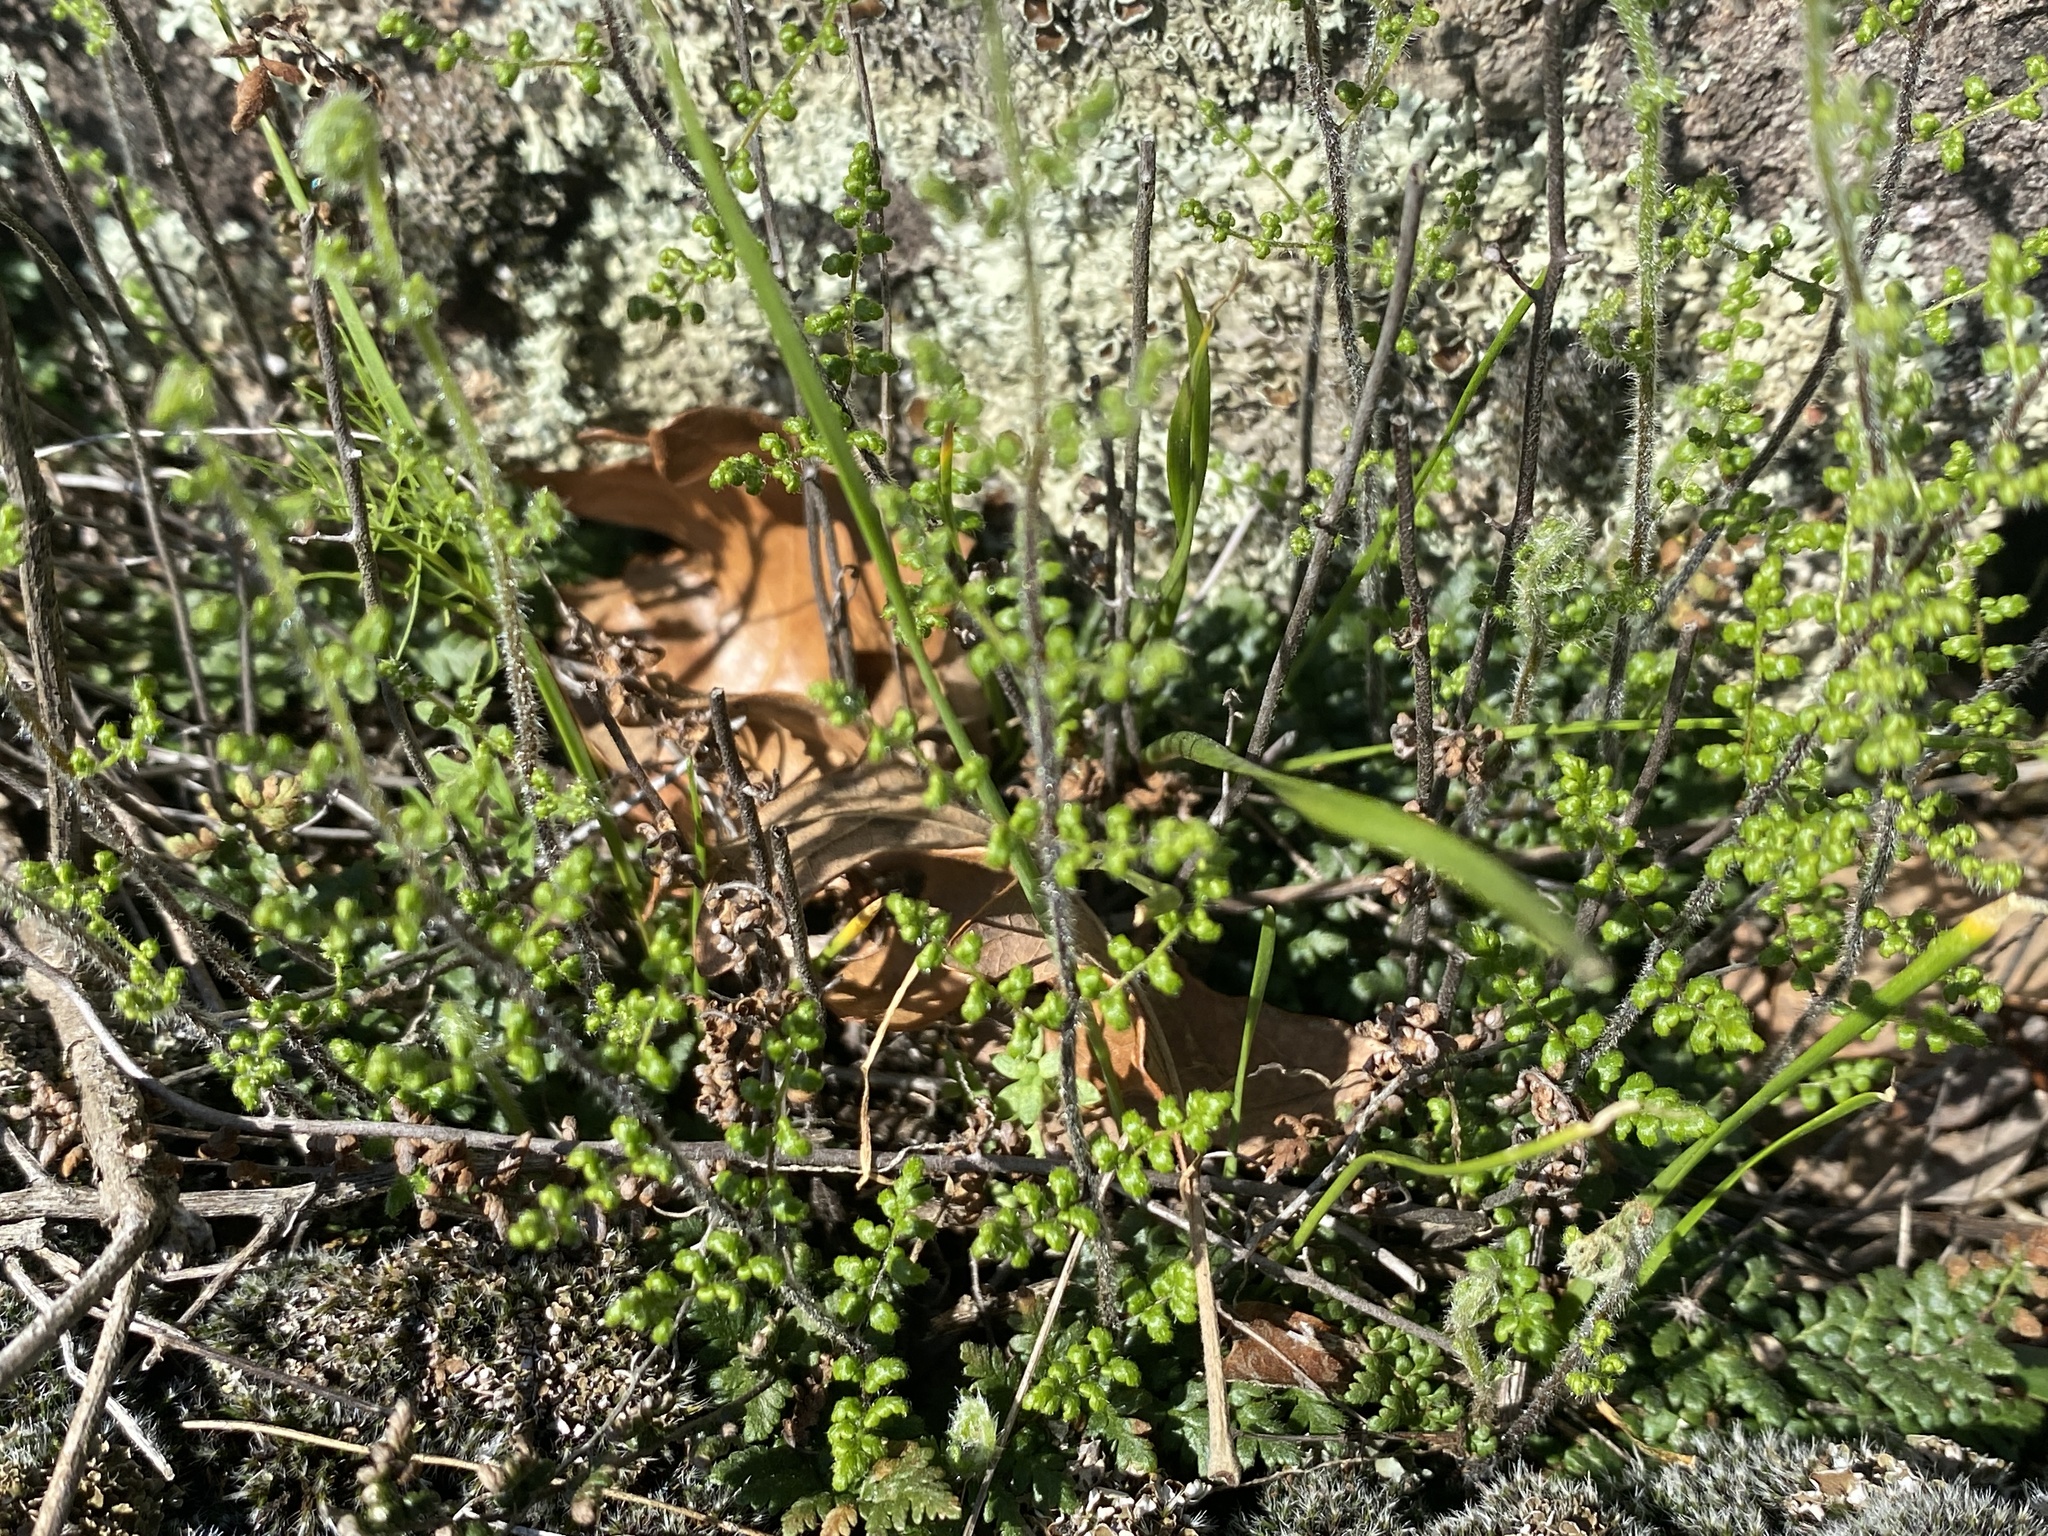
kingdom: Plantae
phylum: Tracheophyta
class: Polypodiopsida
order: Polypodiales
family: Pteridaceae
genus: Myriopteris
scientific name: Myriopteris lanosa
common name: Hairy lip fern
